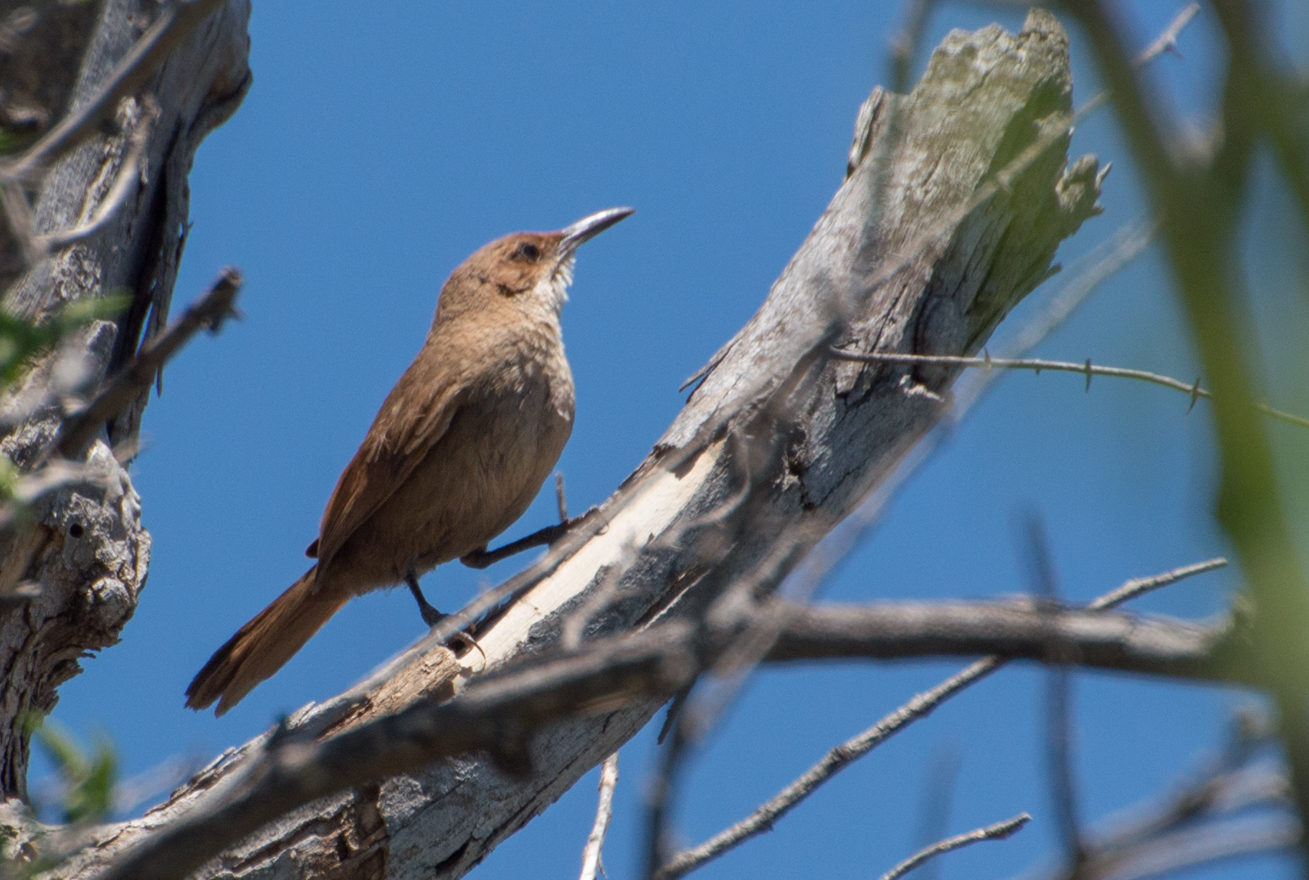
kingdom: Animalia
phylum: Chordata
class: Aves
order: Passeriformes
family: Furnariidae
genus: Upucerthia
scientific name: Upucerthia certhioides
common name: Chaco earthcreeper
